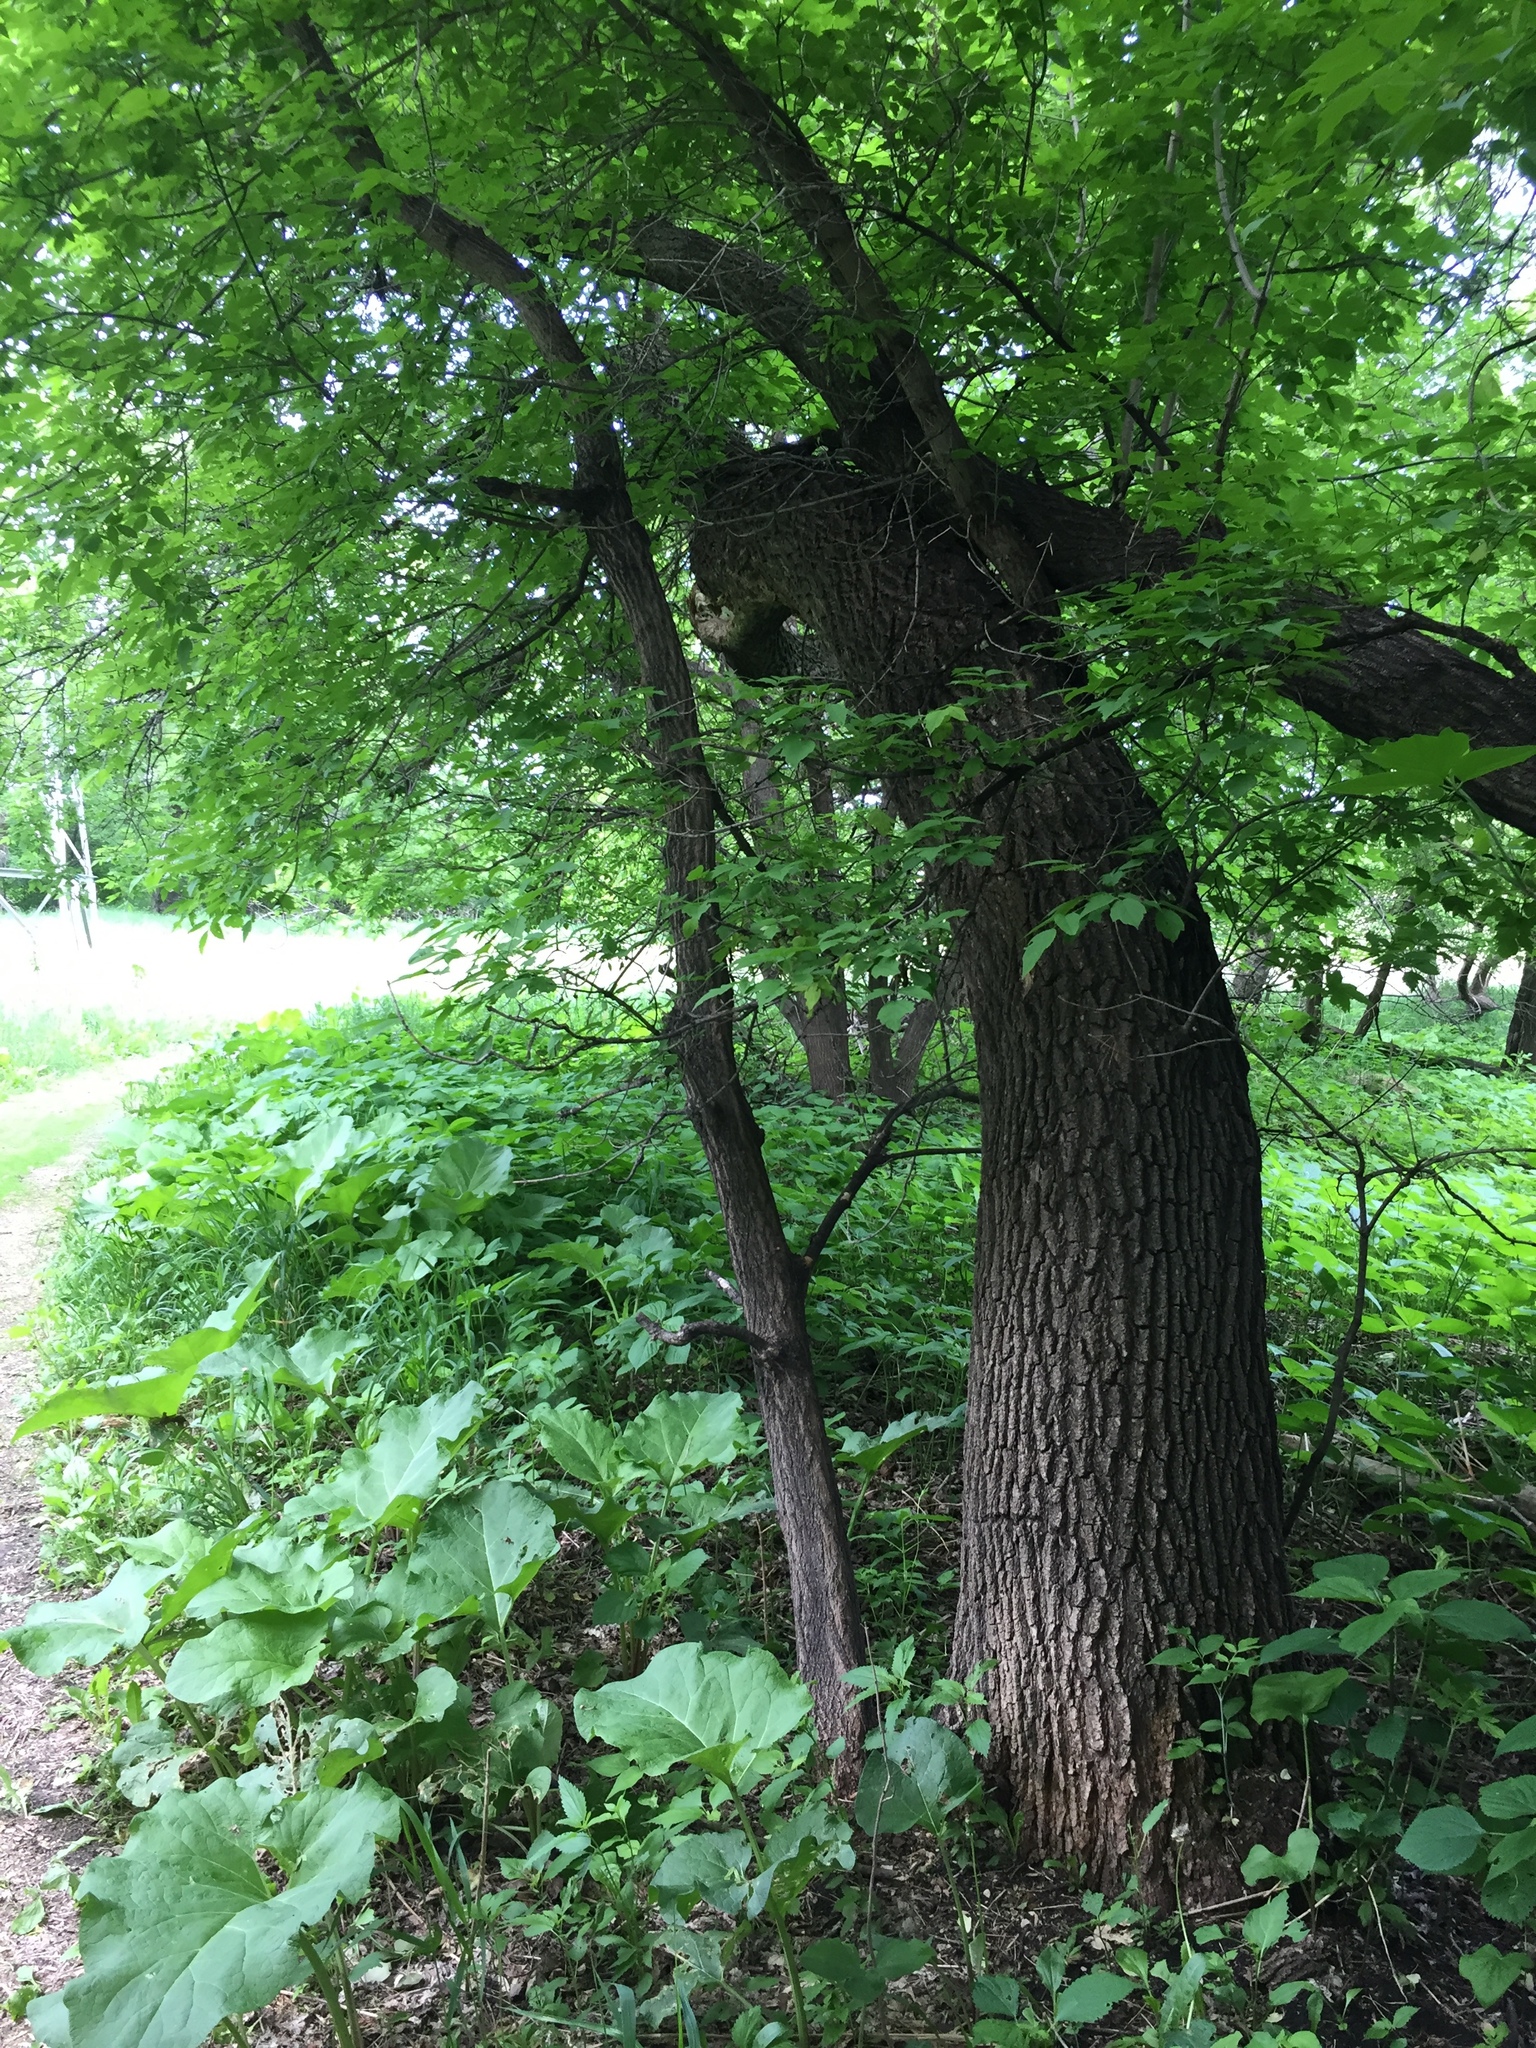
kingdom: Plantae
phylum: Tracheophyta
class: Magnoliopsida
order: Sapindales
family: Sapindaceae
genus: Acer
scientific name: Acer negundo
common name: Ashleaf maple
